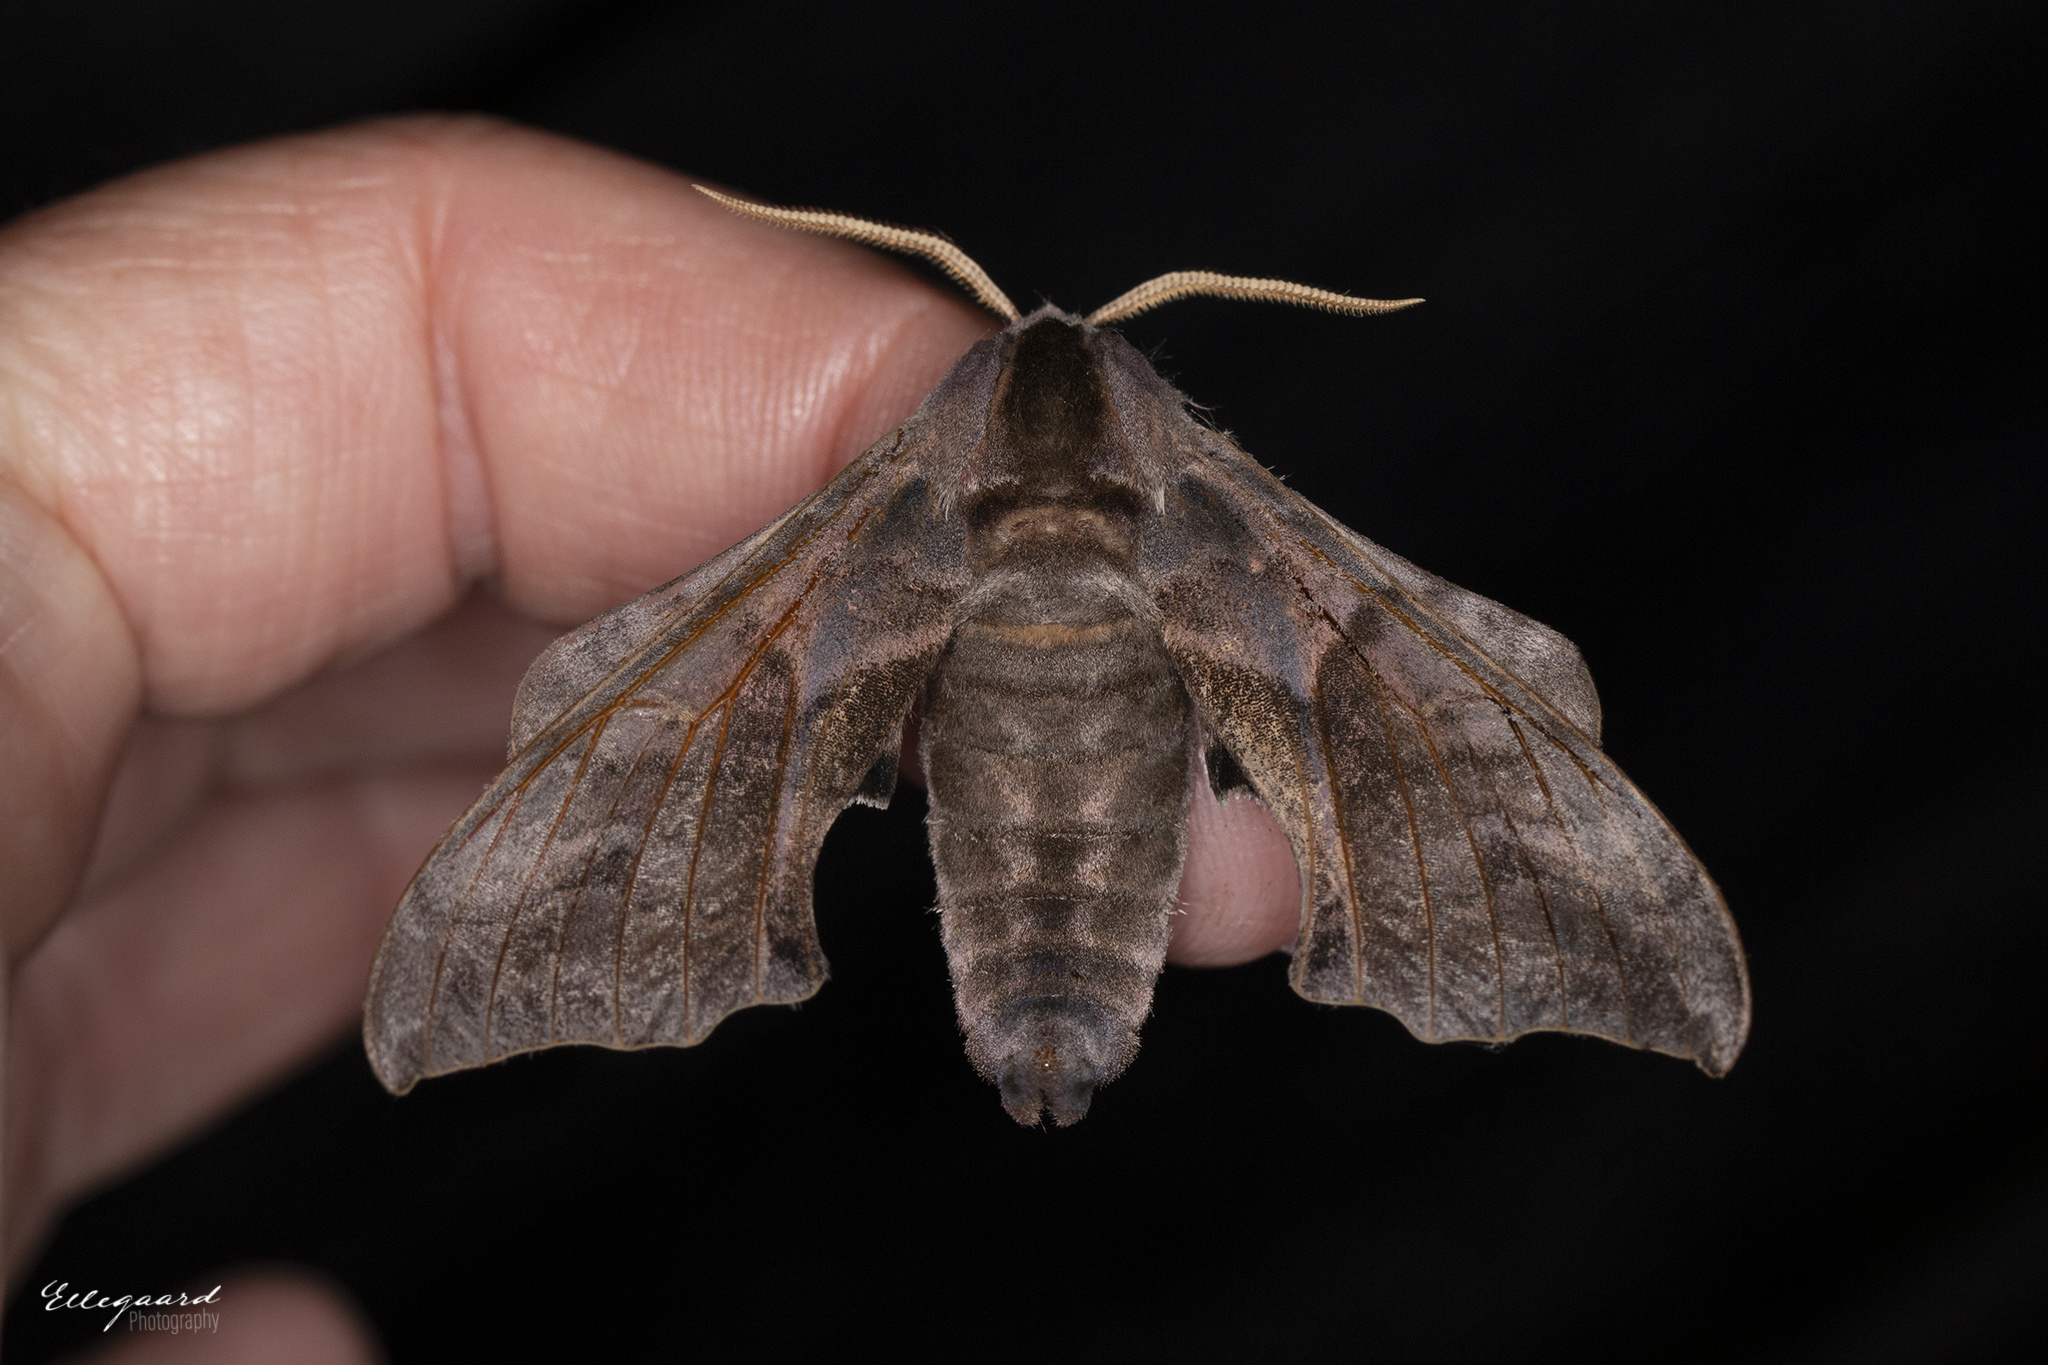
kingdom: Animalia
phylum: Arthropoda
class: Insecta
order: Lepidoptera
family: Sphingidae
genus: Smerinthus
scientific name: Smerinthus ocellata
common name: Eyed hawk-moth
